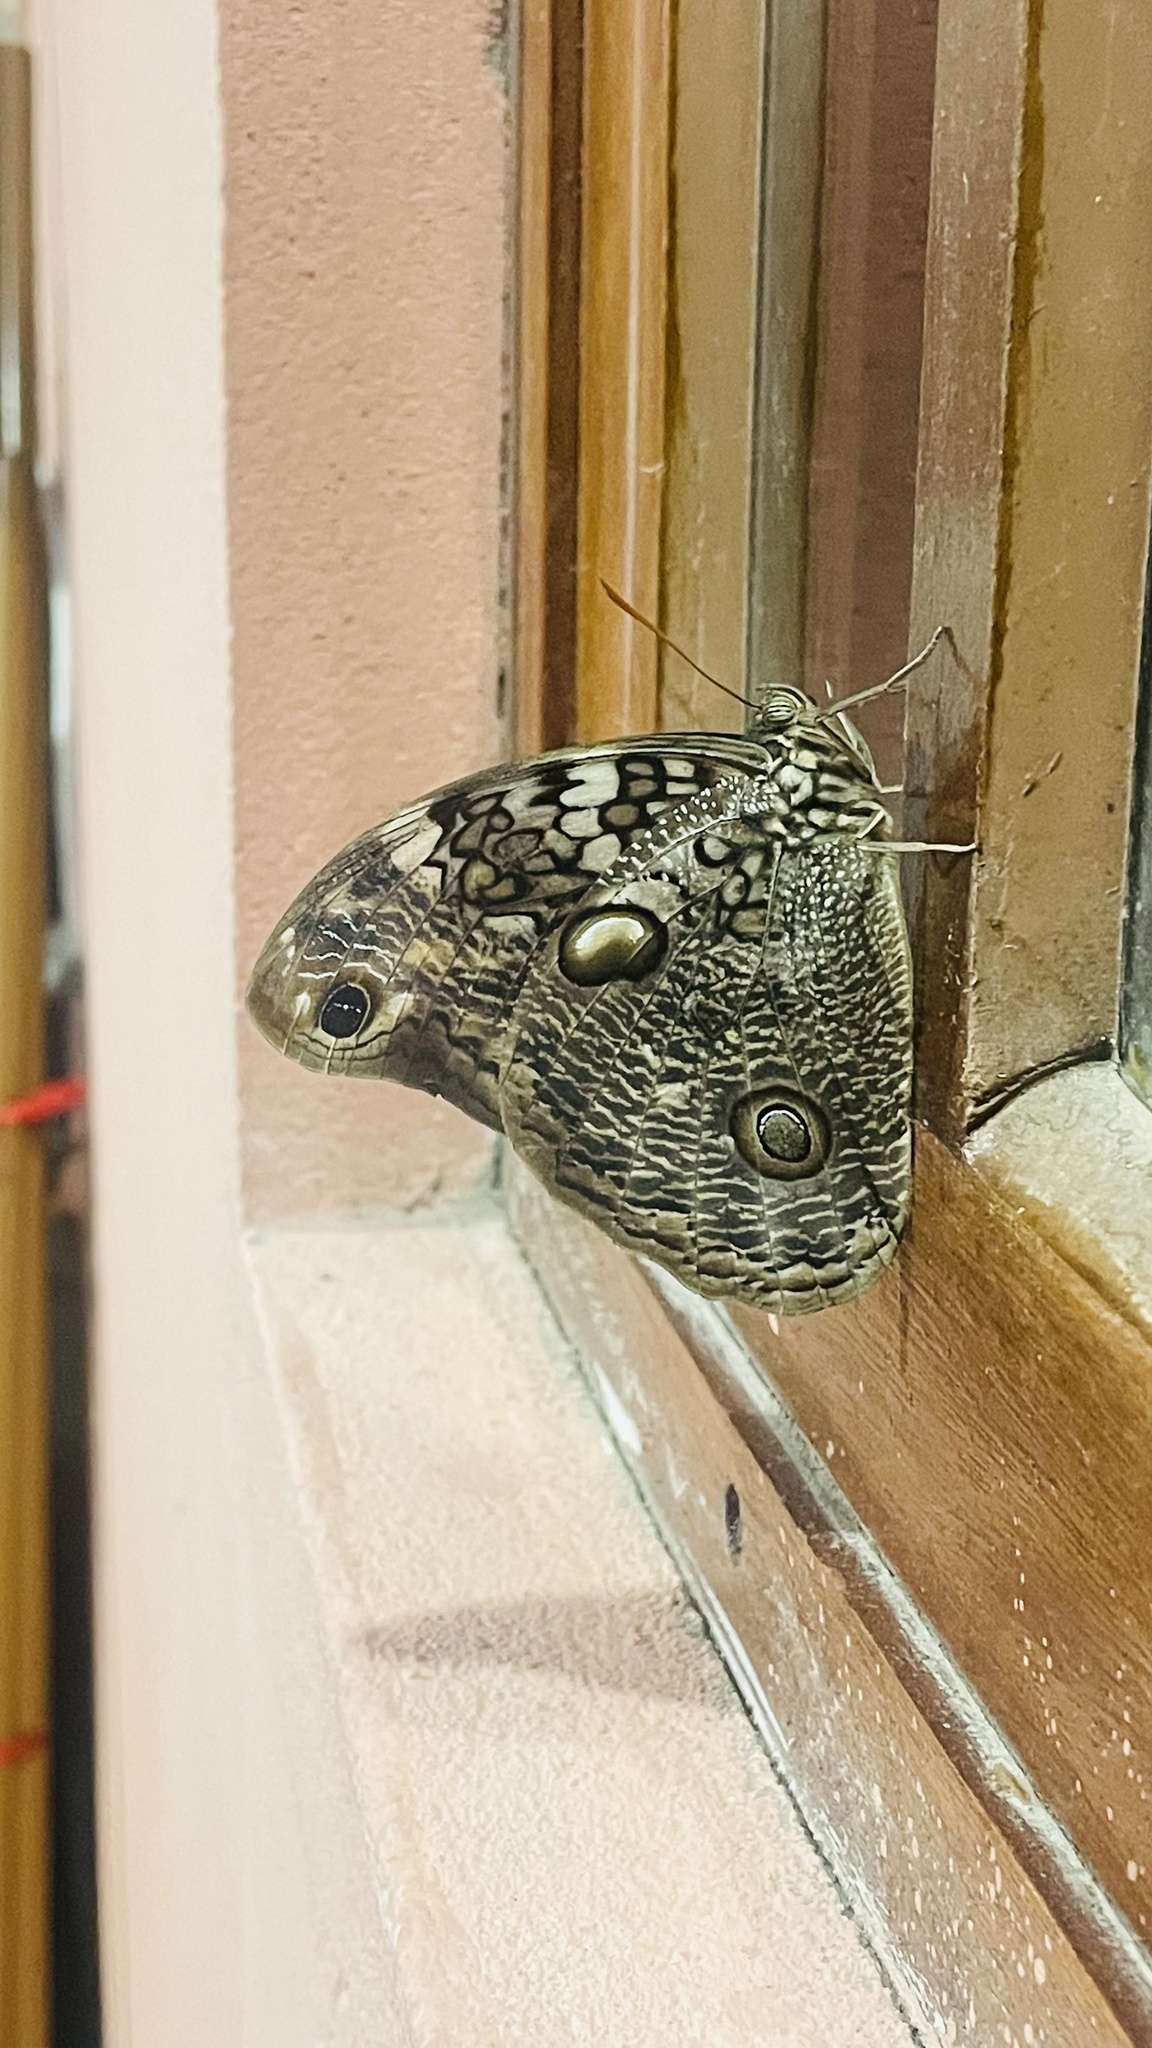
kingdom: Animalia
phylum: Arthropoda
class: Insecta
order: Lepidoptera
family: Nymphalidae
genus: Catoblepia
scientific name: Catoblepia amphirhoe
